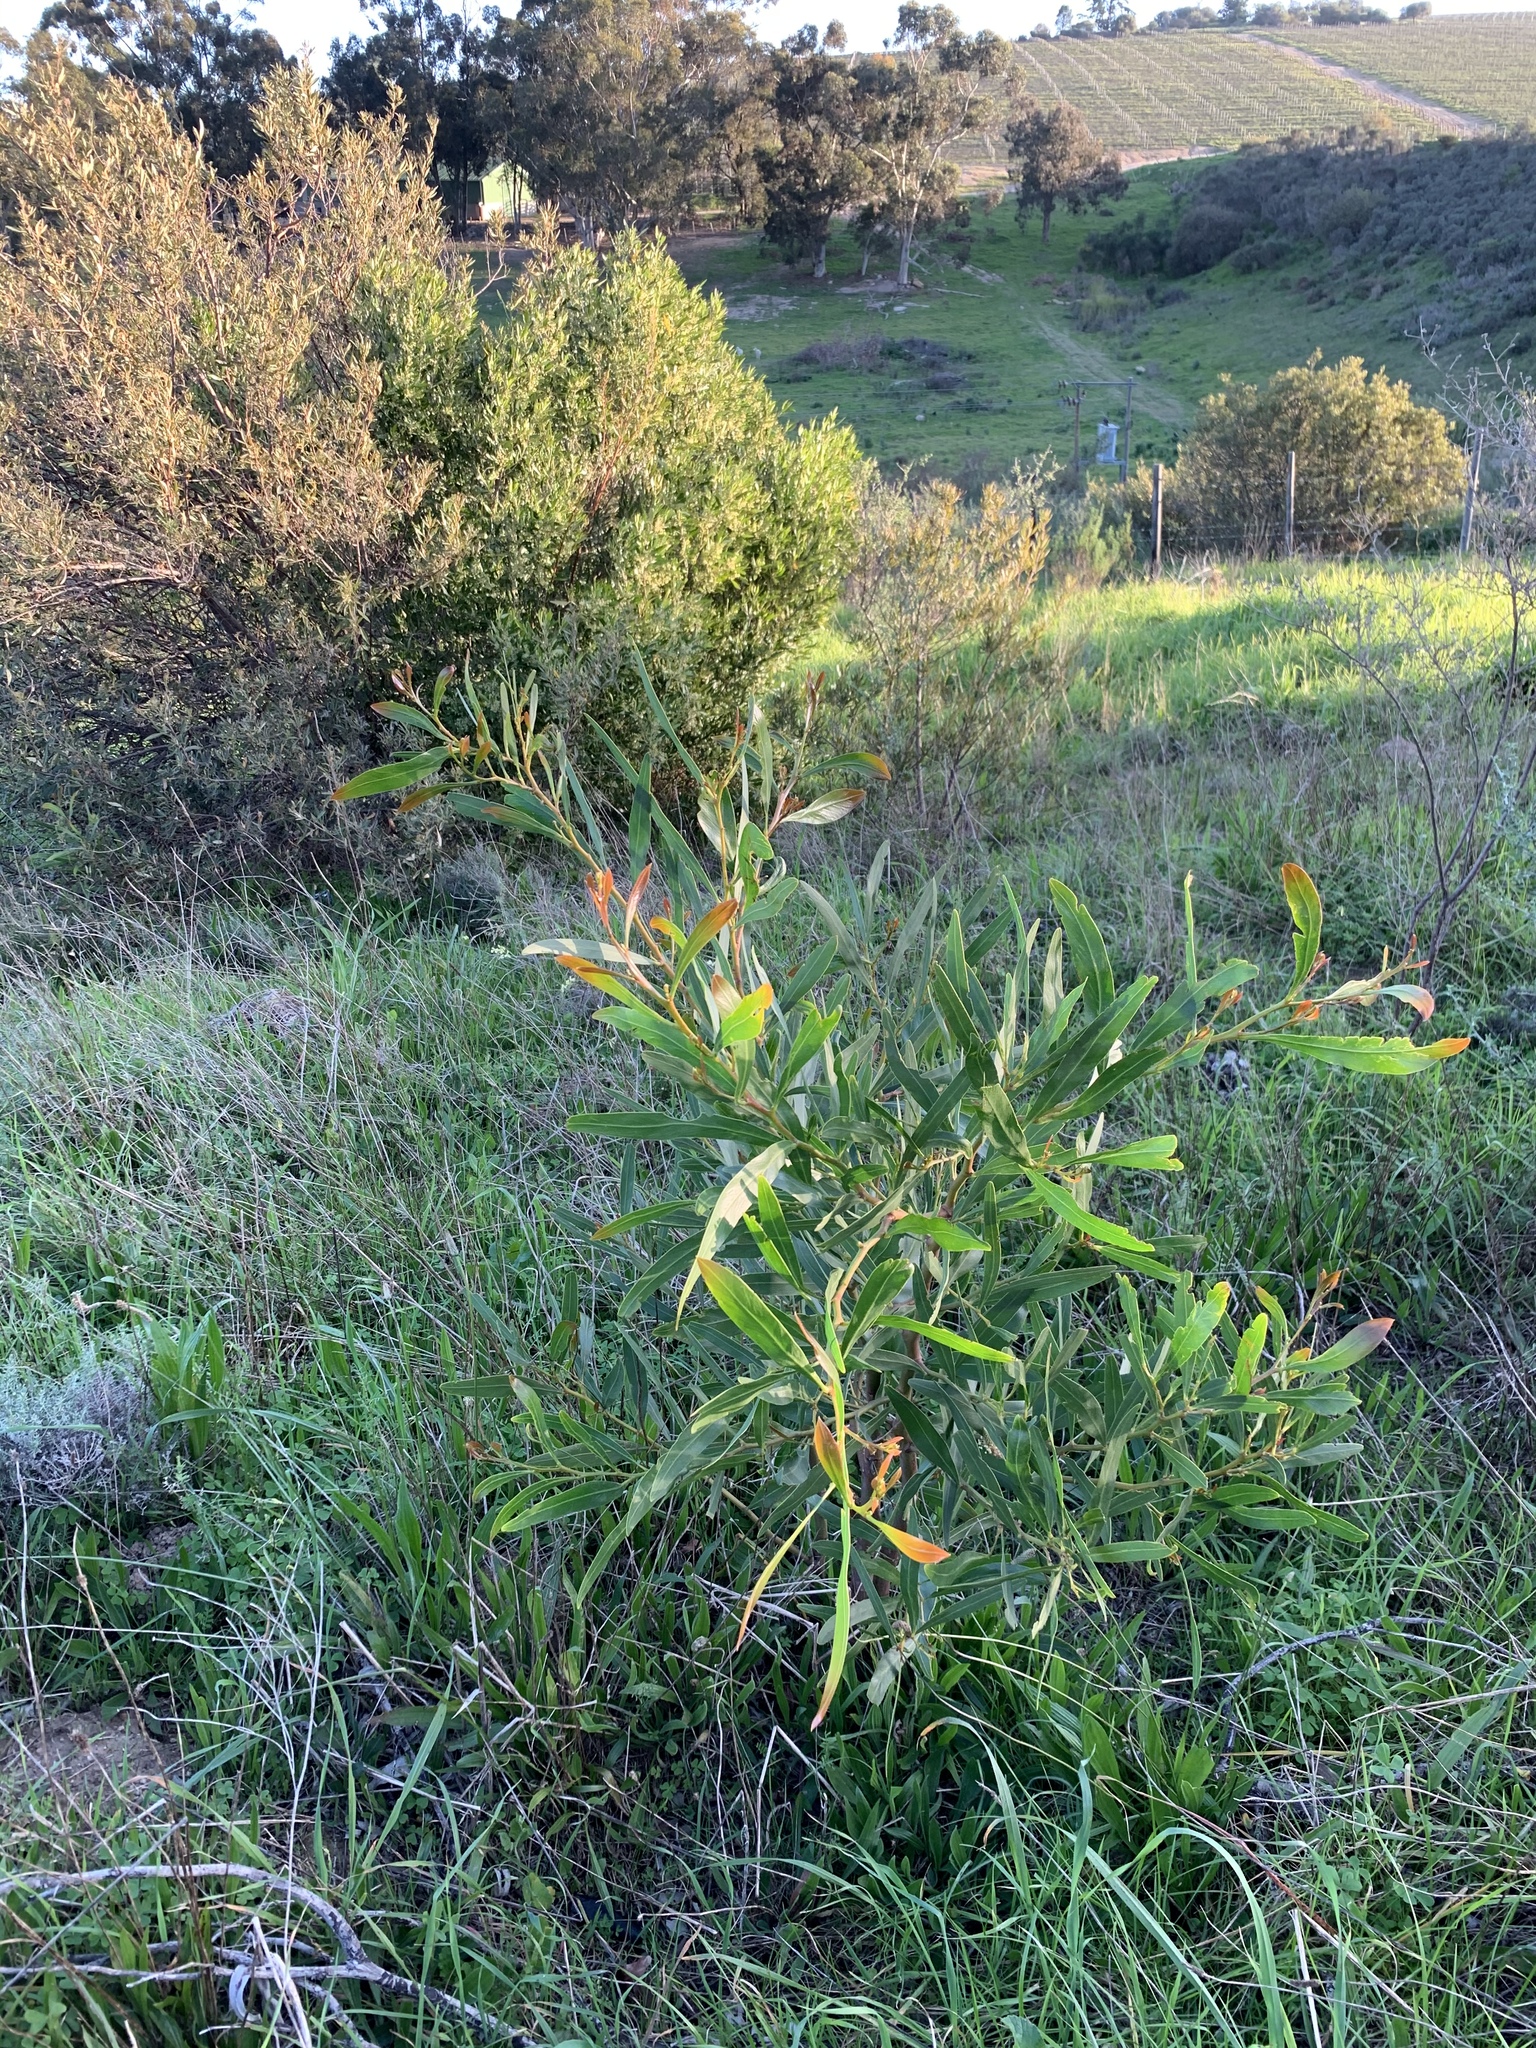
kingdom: Plantae
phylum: Tracheophyta
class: Magnoliopsida
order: Fabales
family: Fabaceae
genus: Acacia
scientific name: Acacia saligna
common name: Orange wattle
